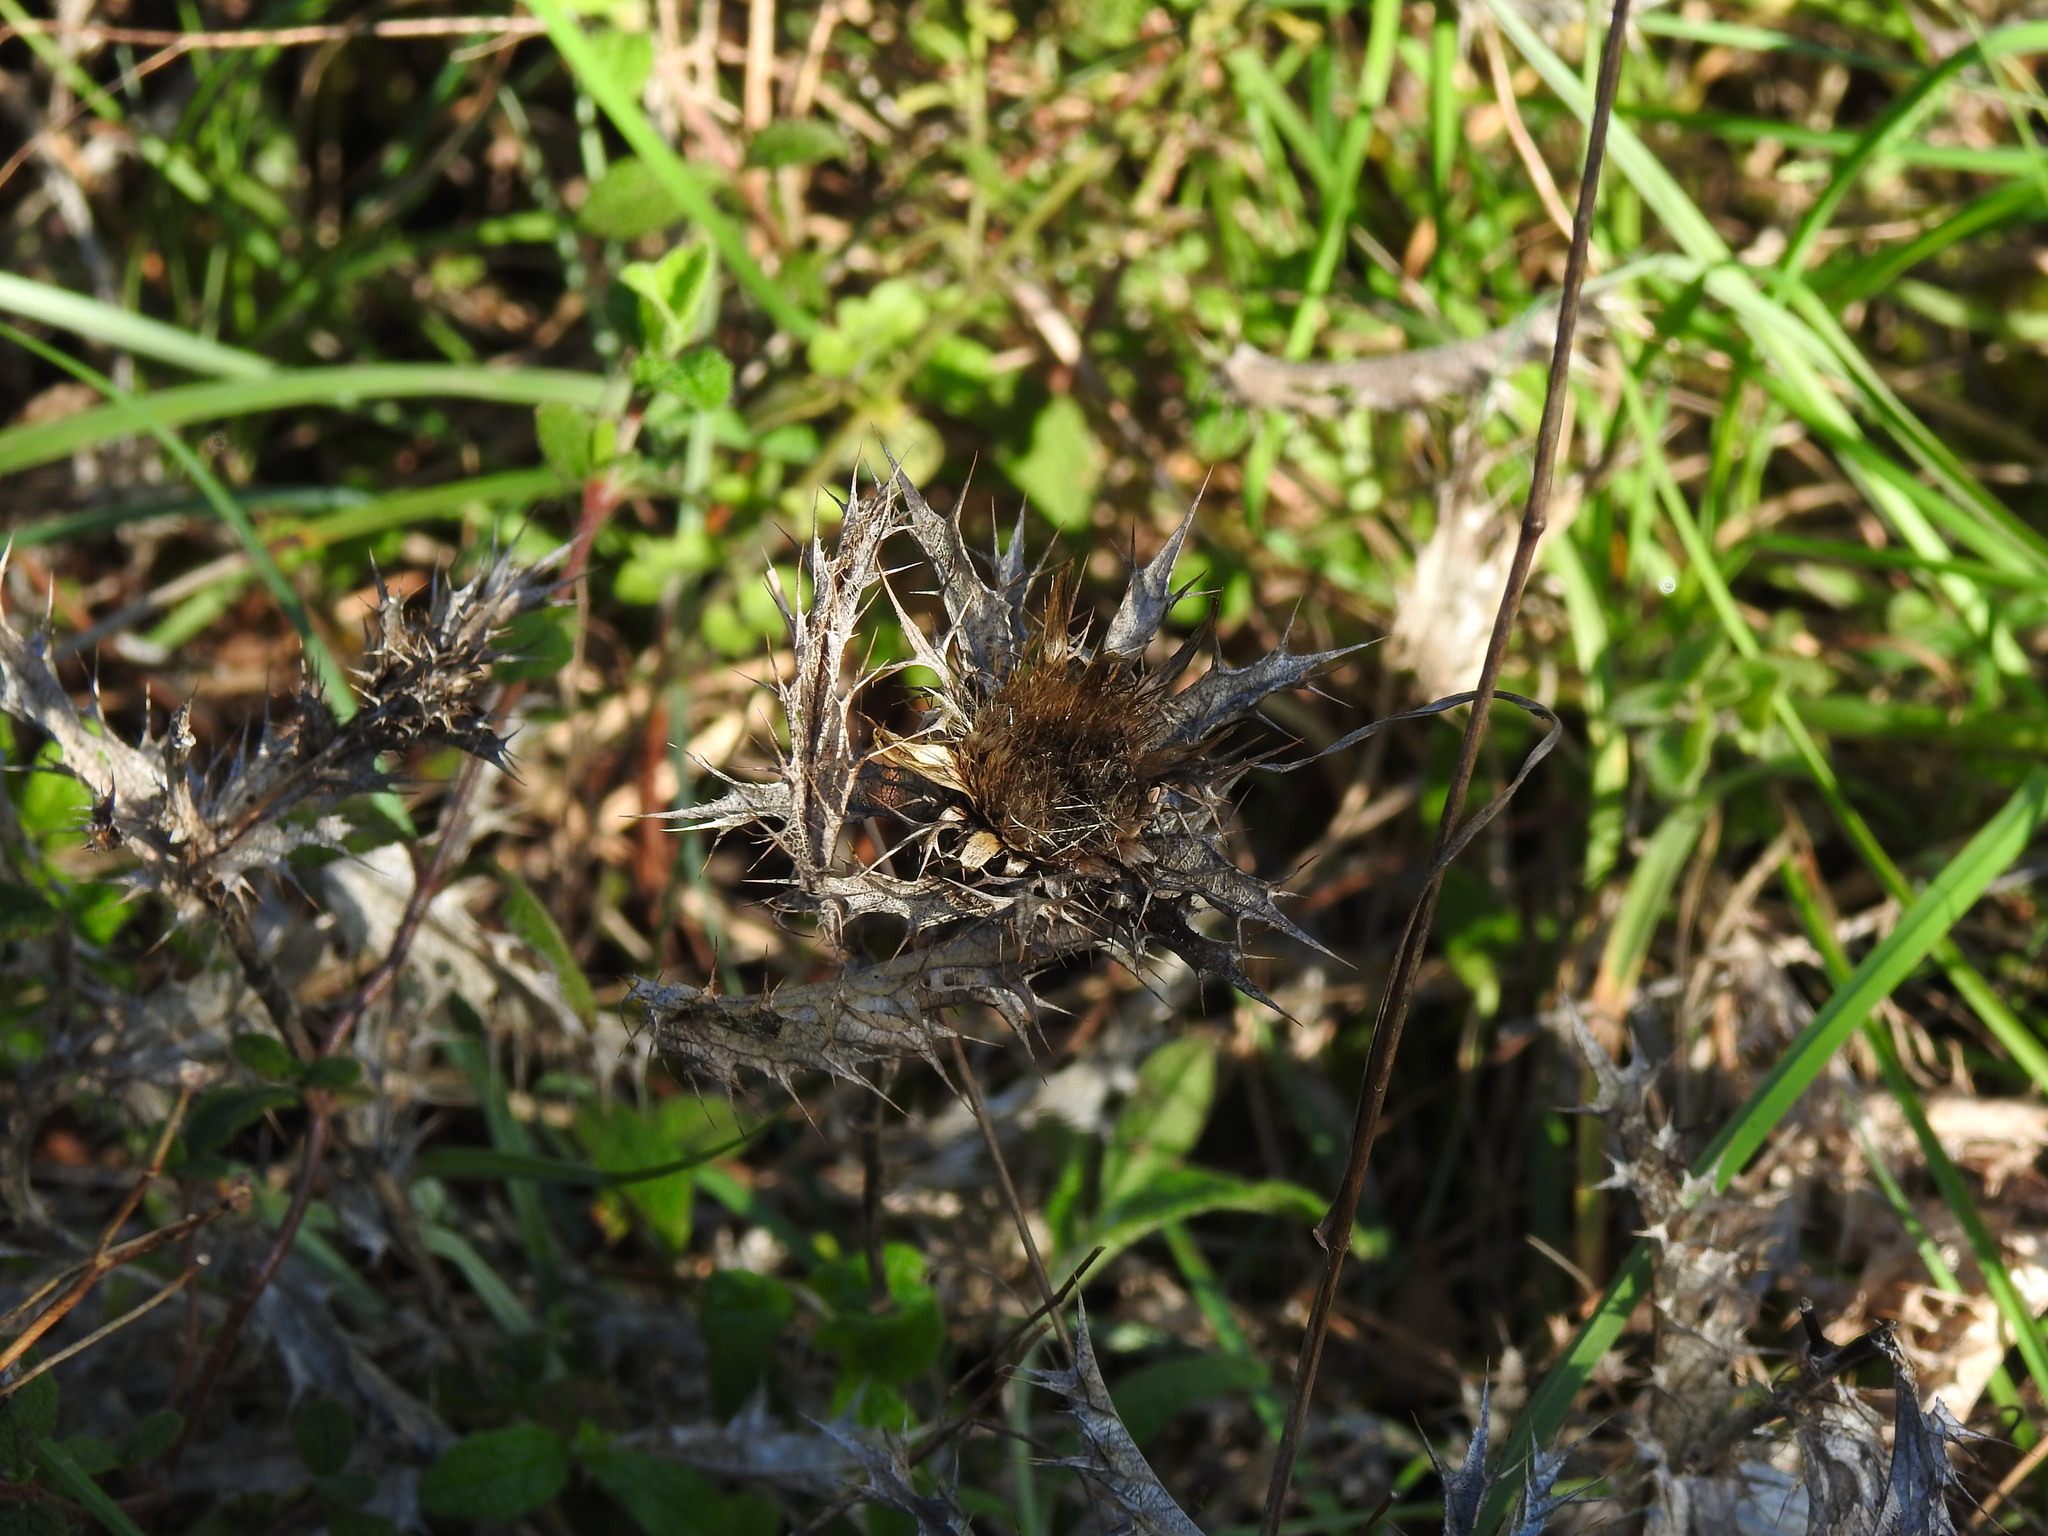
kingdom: Plantae
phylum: Tracheophyta
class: Magnoliopsida
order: Asterales
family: Asteraceae
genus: Carlina
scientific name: Carlina hispanica
